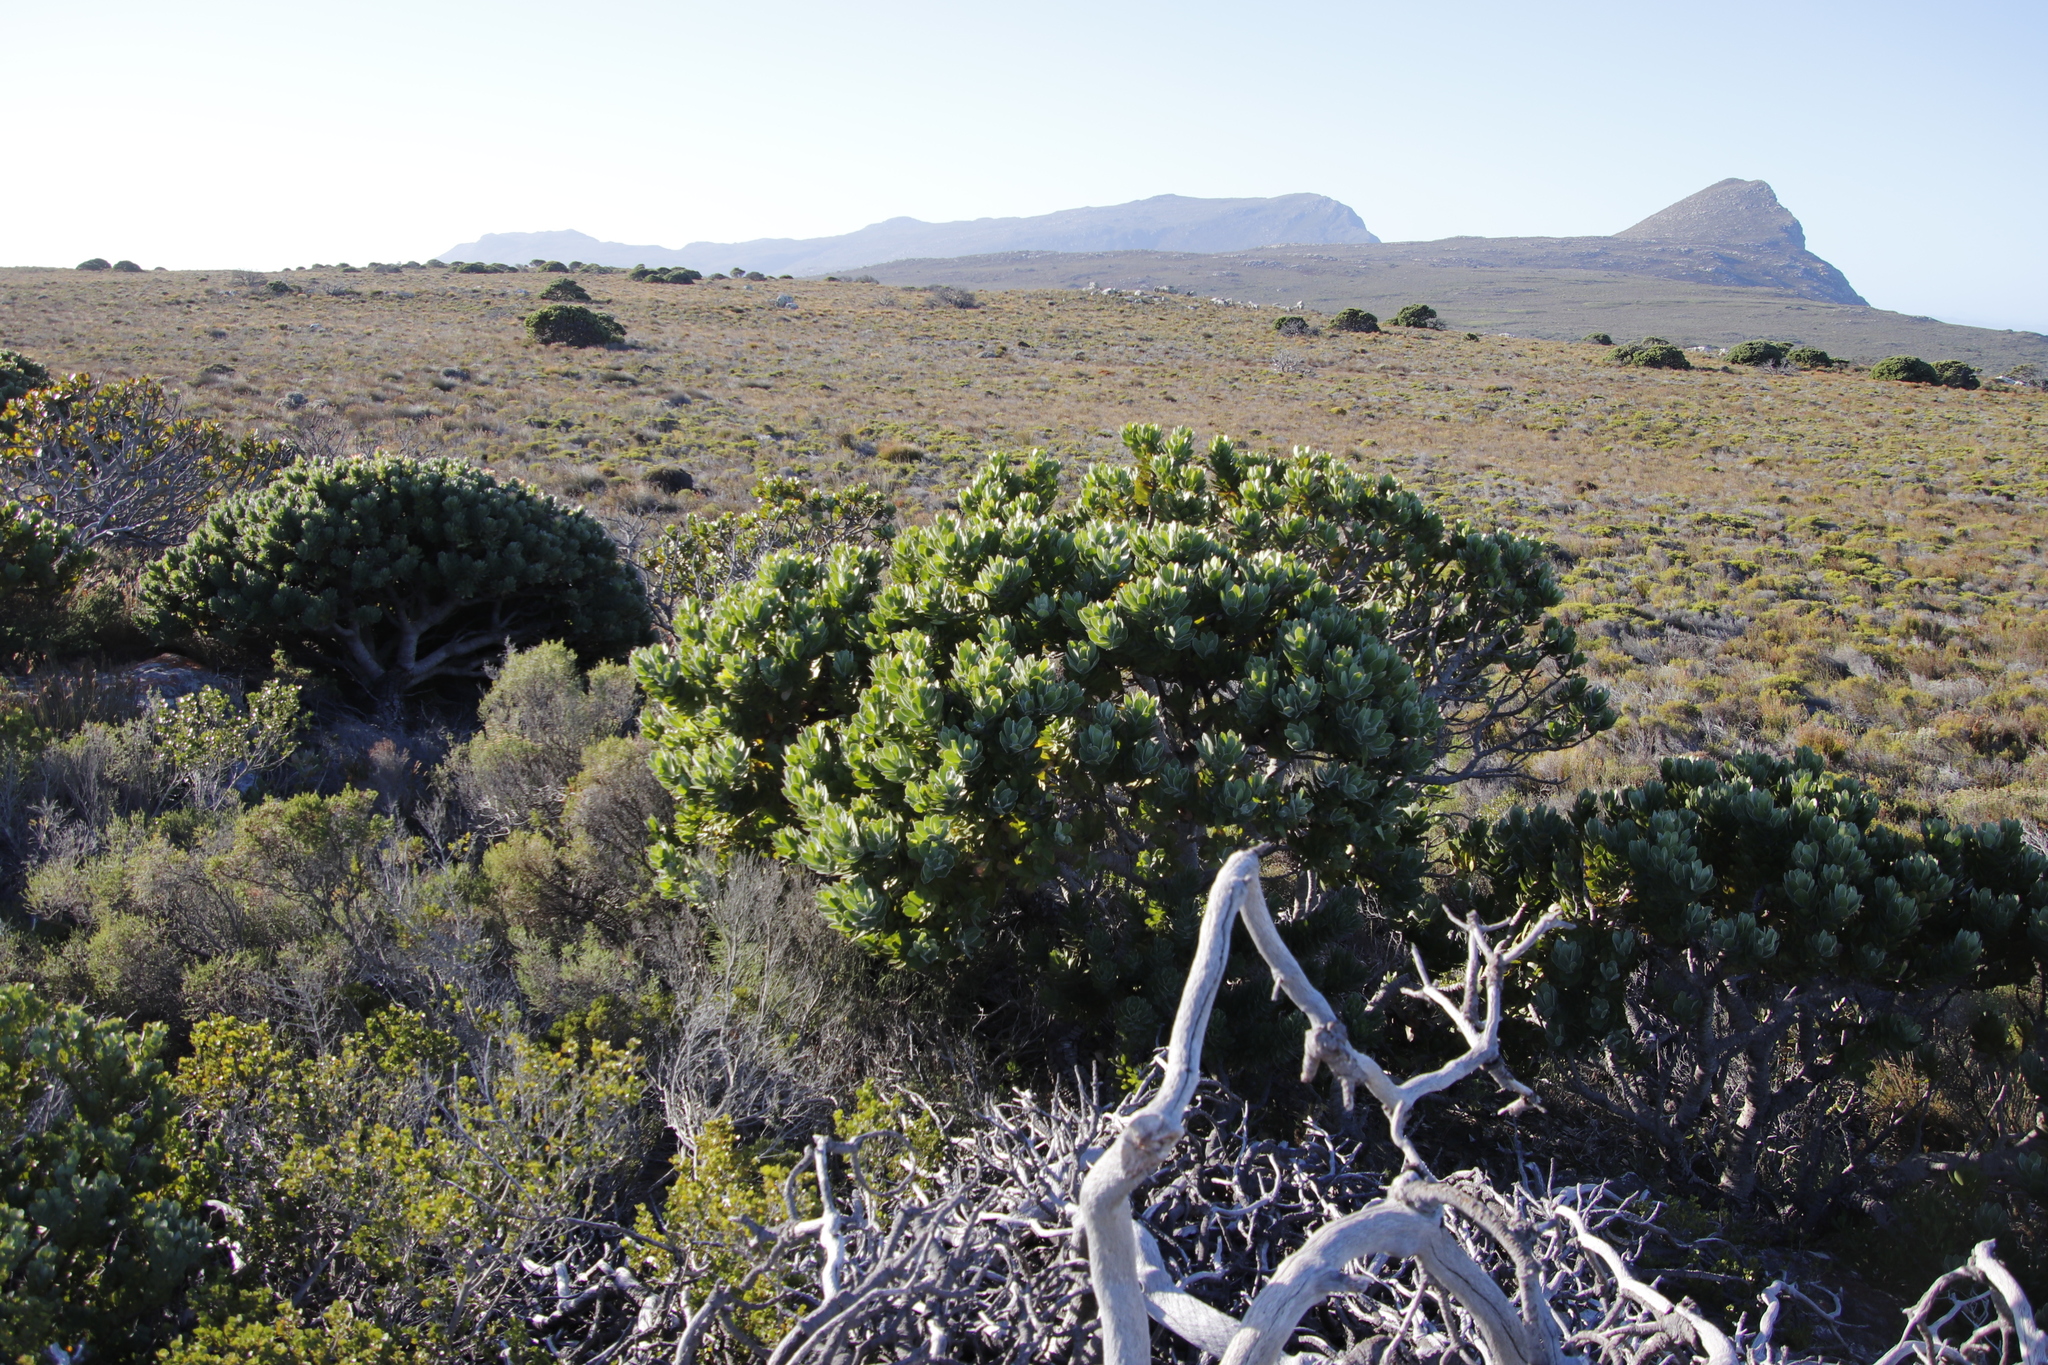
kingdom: Plantae
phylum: Tracheophyta
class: Magnoliopsida
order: Proteales
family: Proteaceae
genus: Leucospermum
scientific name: Leucospermum conocarpodendron
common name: Tree pincushion
